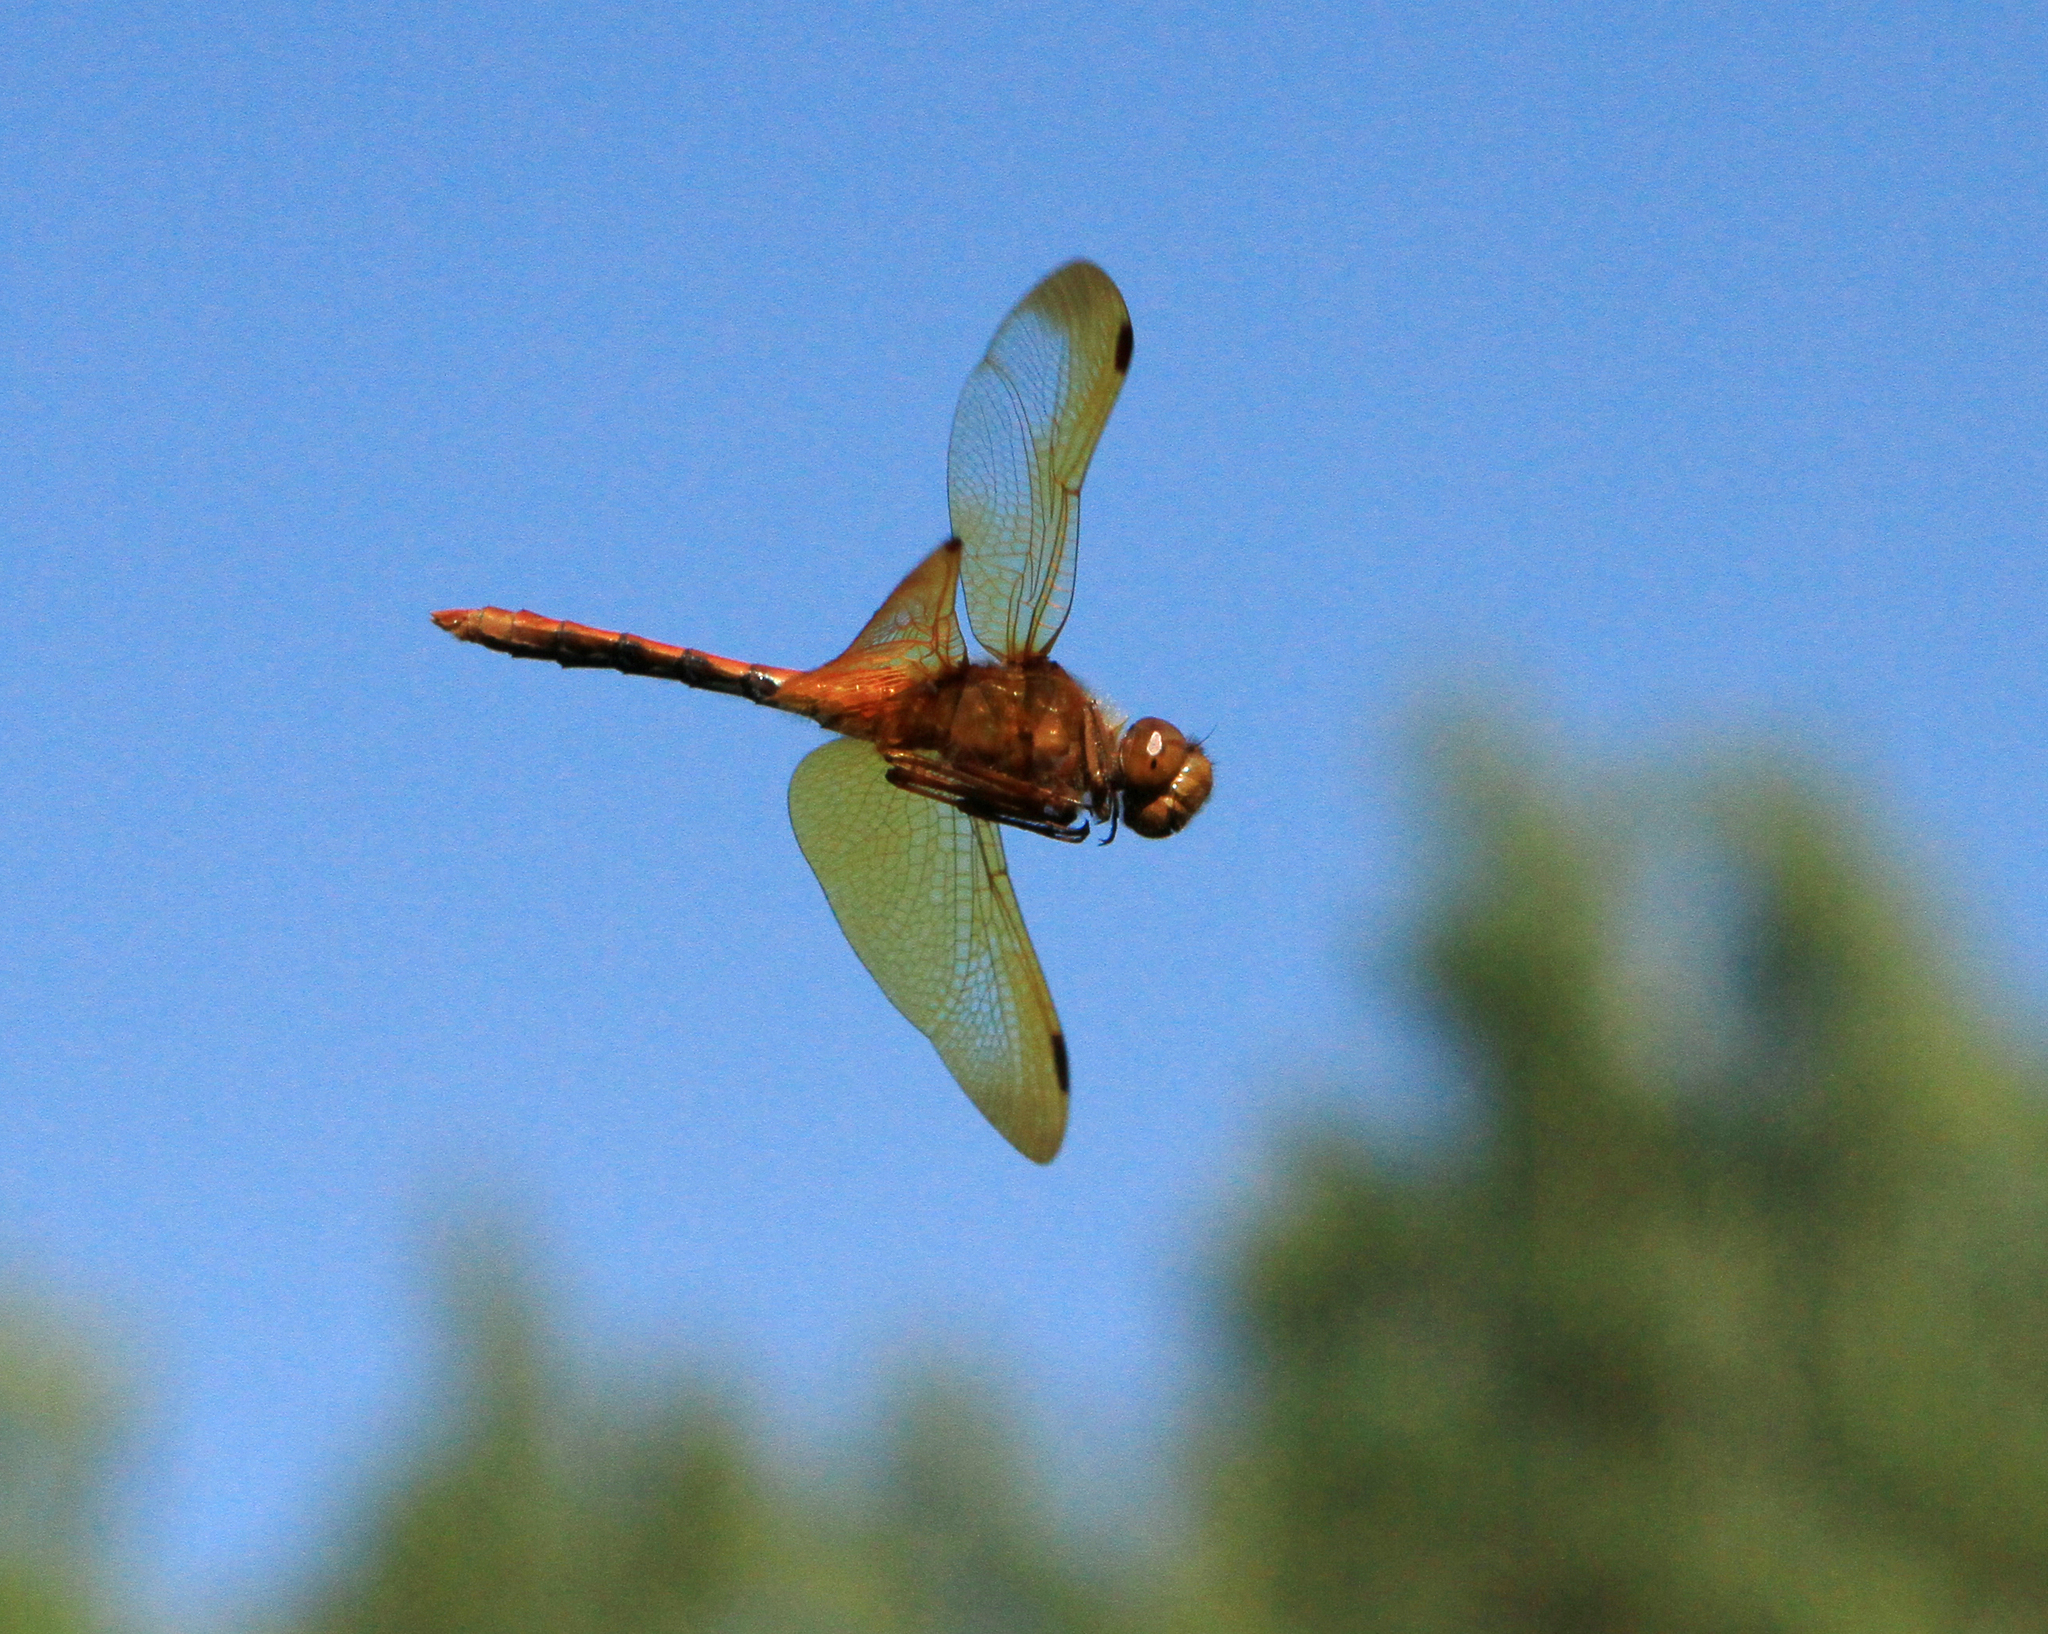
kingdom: Animalia
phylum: Arthropoda
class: Insecta
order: Odonata
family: Libellulidae
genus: Sympetrum
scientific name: Sympetrum croceolum
